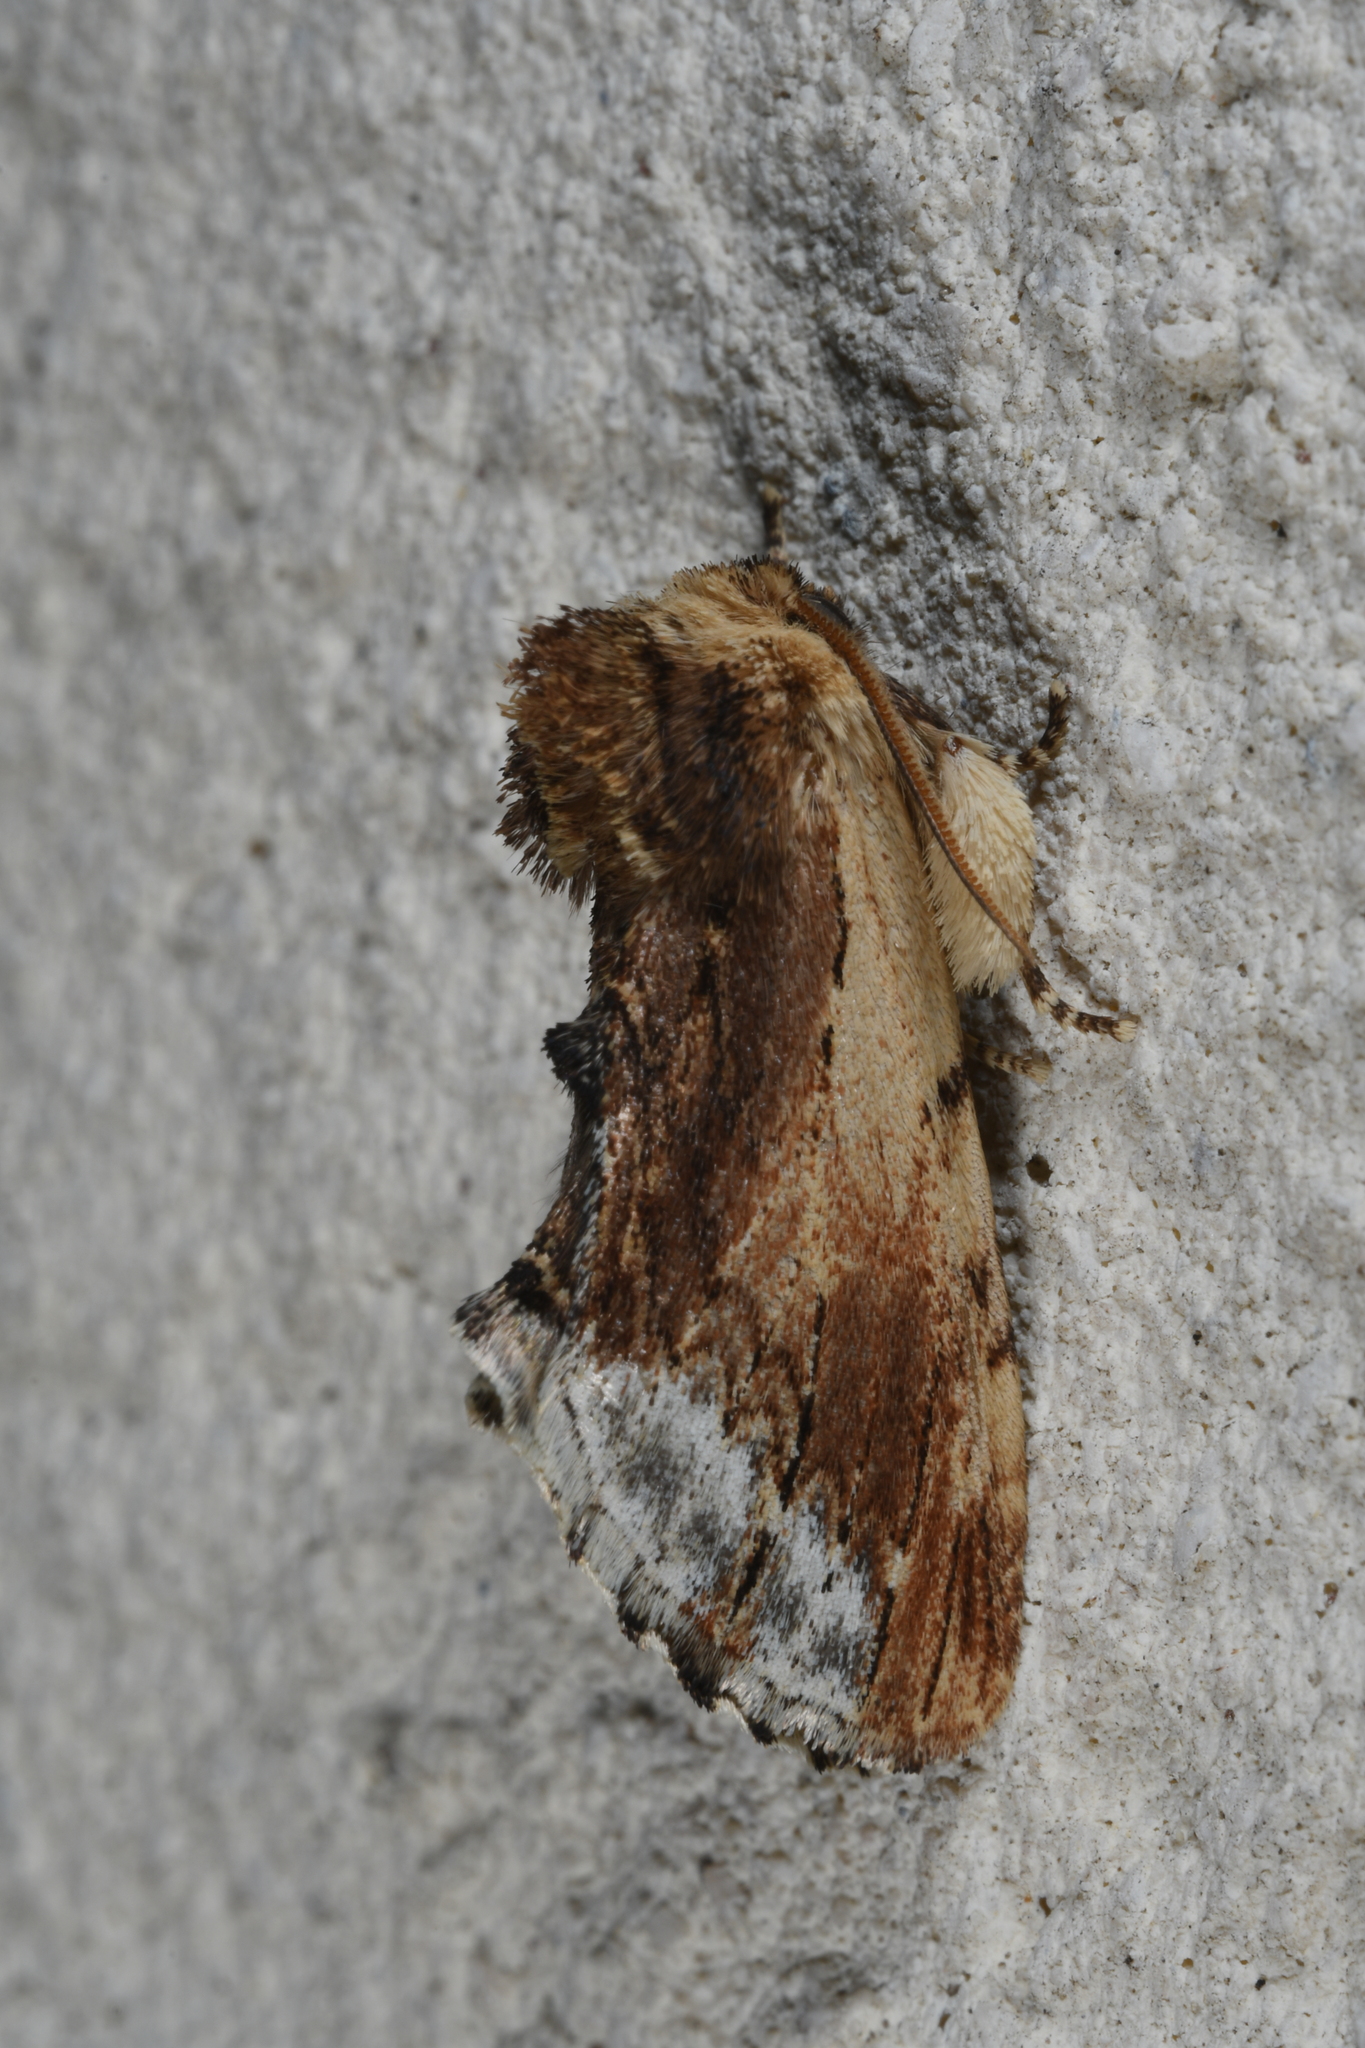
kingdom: Animalia
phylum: Arthropoda
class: Insecta
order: Lepidoptera
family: Notodontidae
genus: Ptilodon
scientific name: Ptilodon cucullina
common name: Maple prominent
